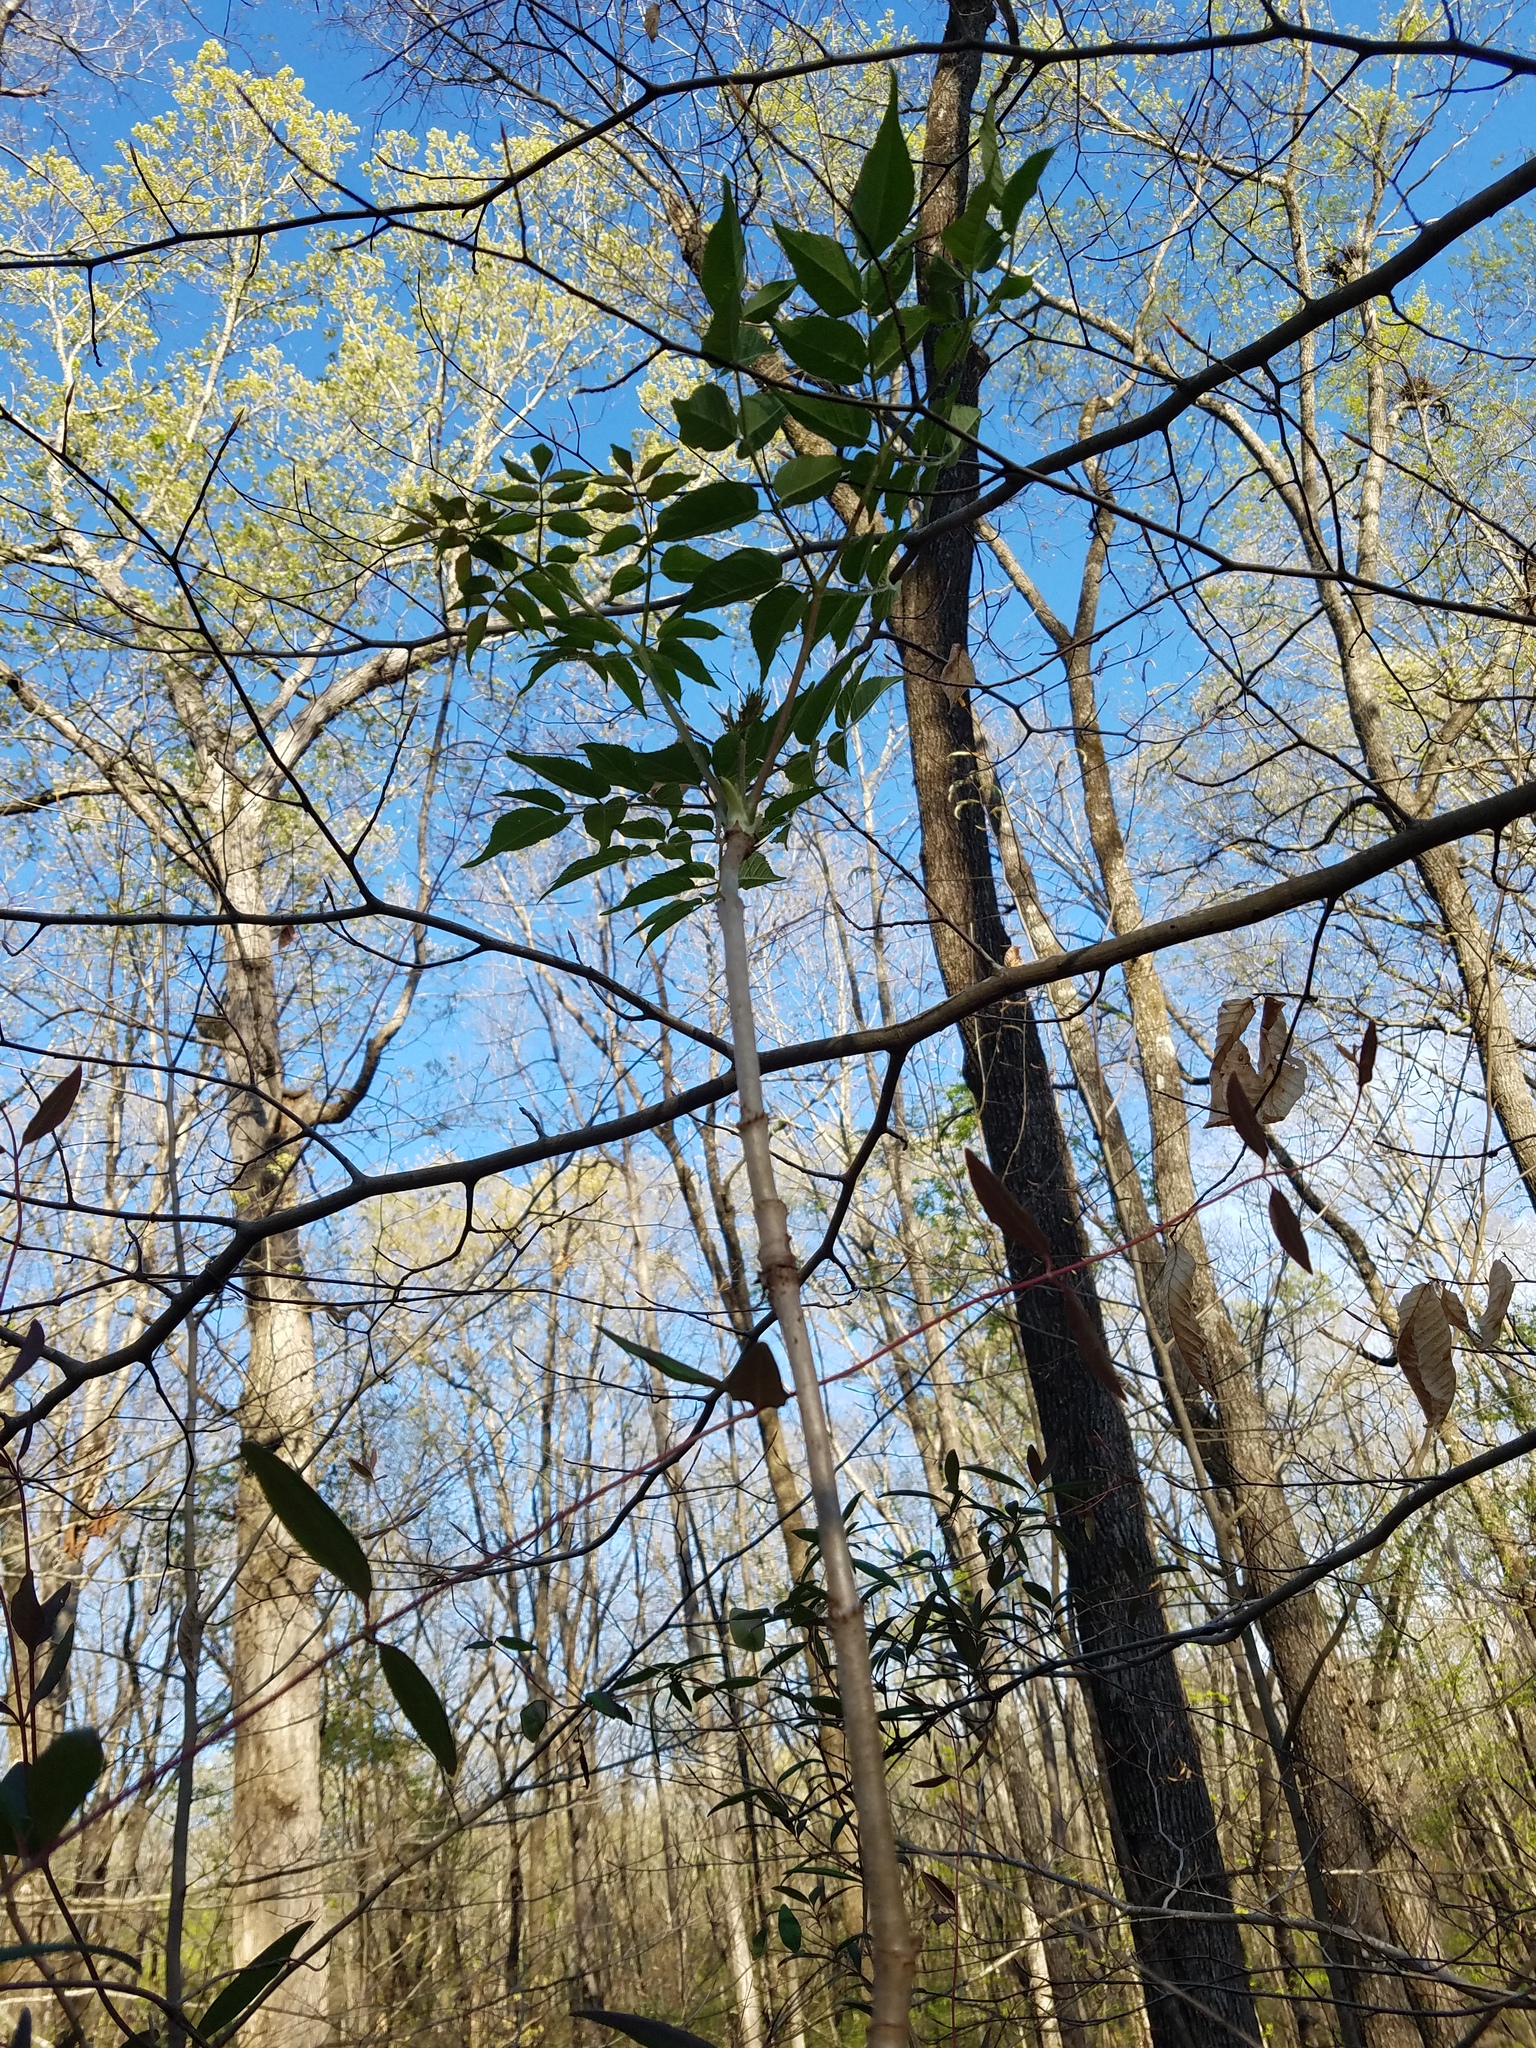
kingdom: Plantae
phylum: Tracheophyta
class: Magnoliopsida
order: Apiales
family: Araliaceae
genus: Aralia
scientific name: Aralia spinosa
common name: Hercules'-club
